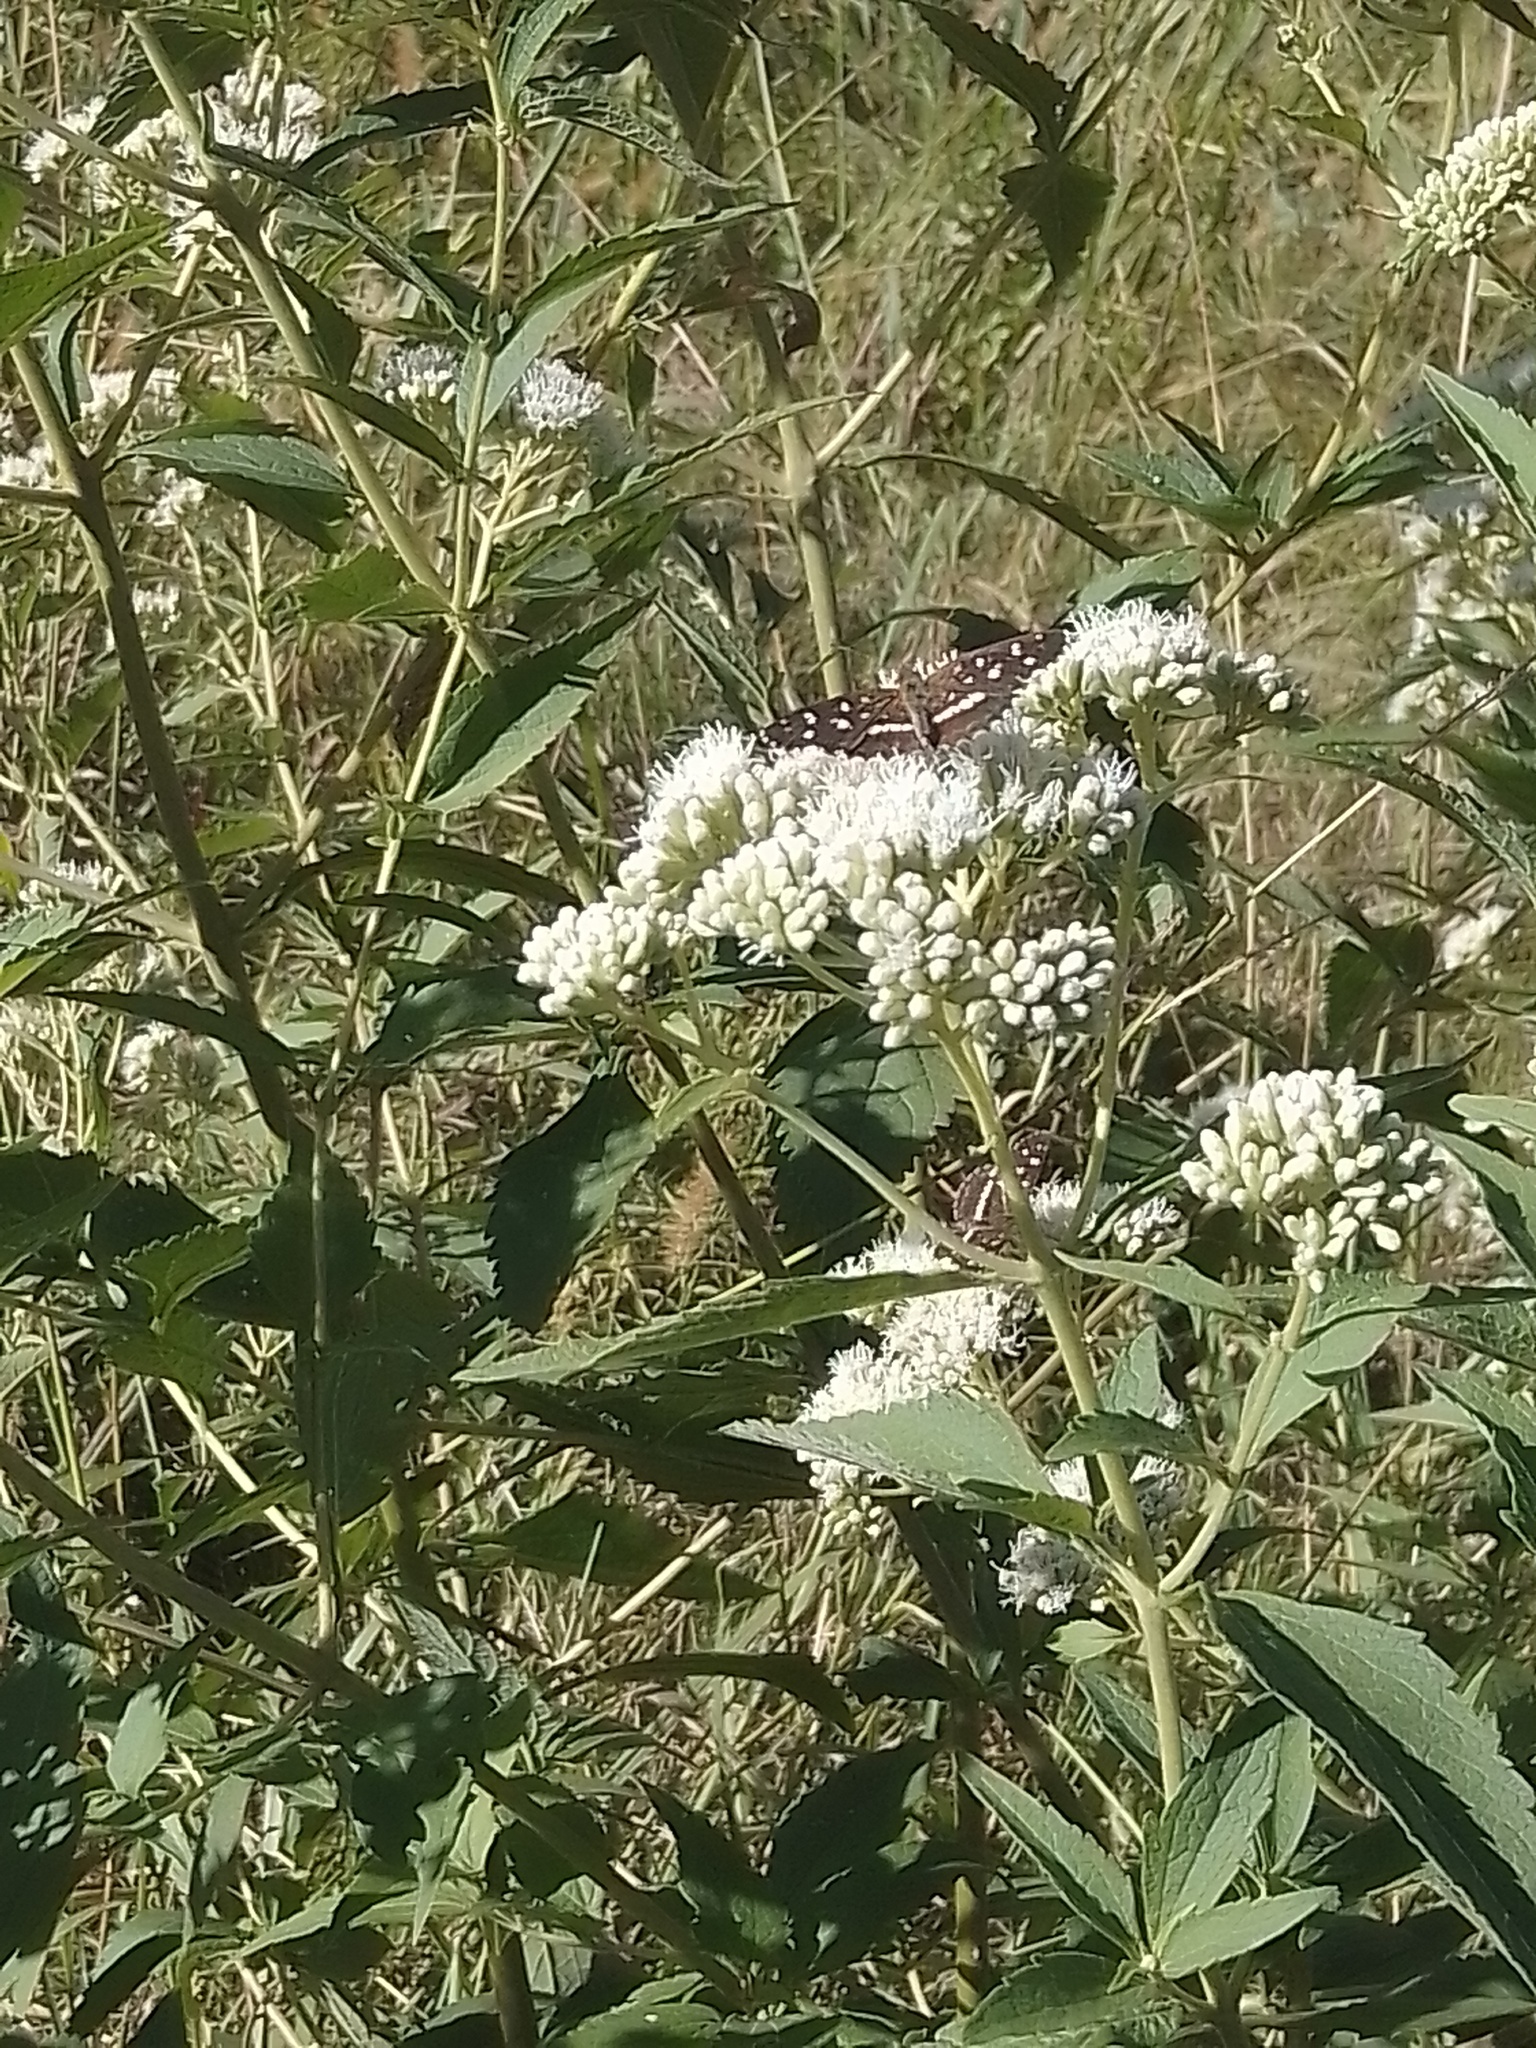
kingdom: Animalia
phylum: Arthropoda
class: Insecta
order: Lepidoptera
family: Nymphalidae
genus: Ortilia
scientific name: Ortilia ithra
